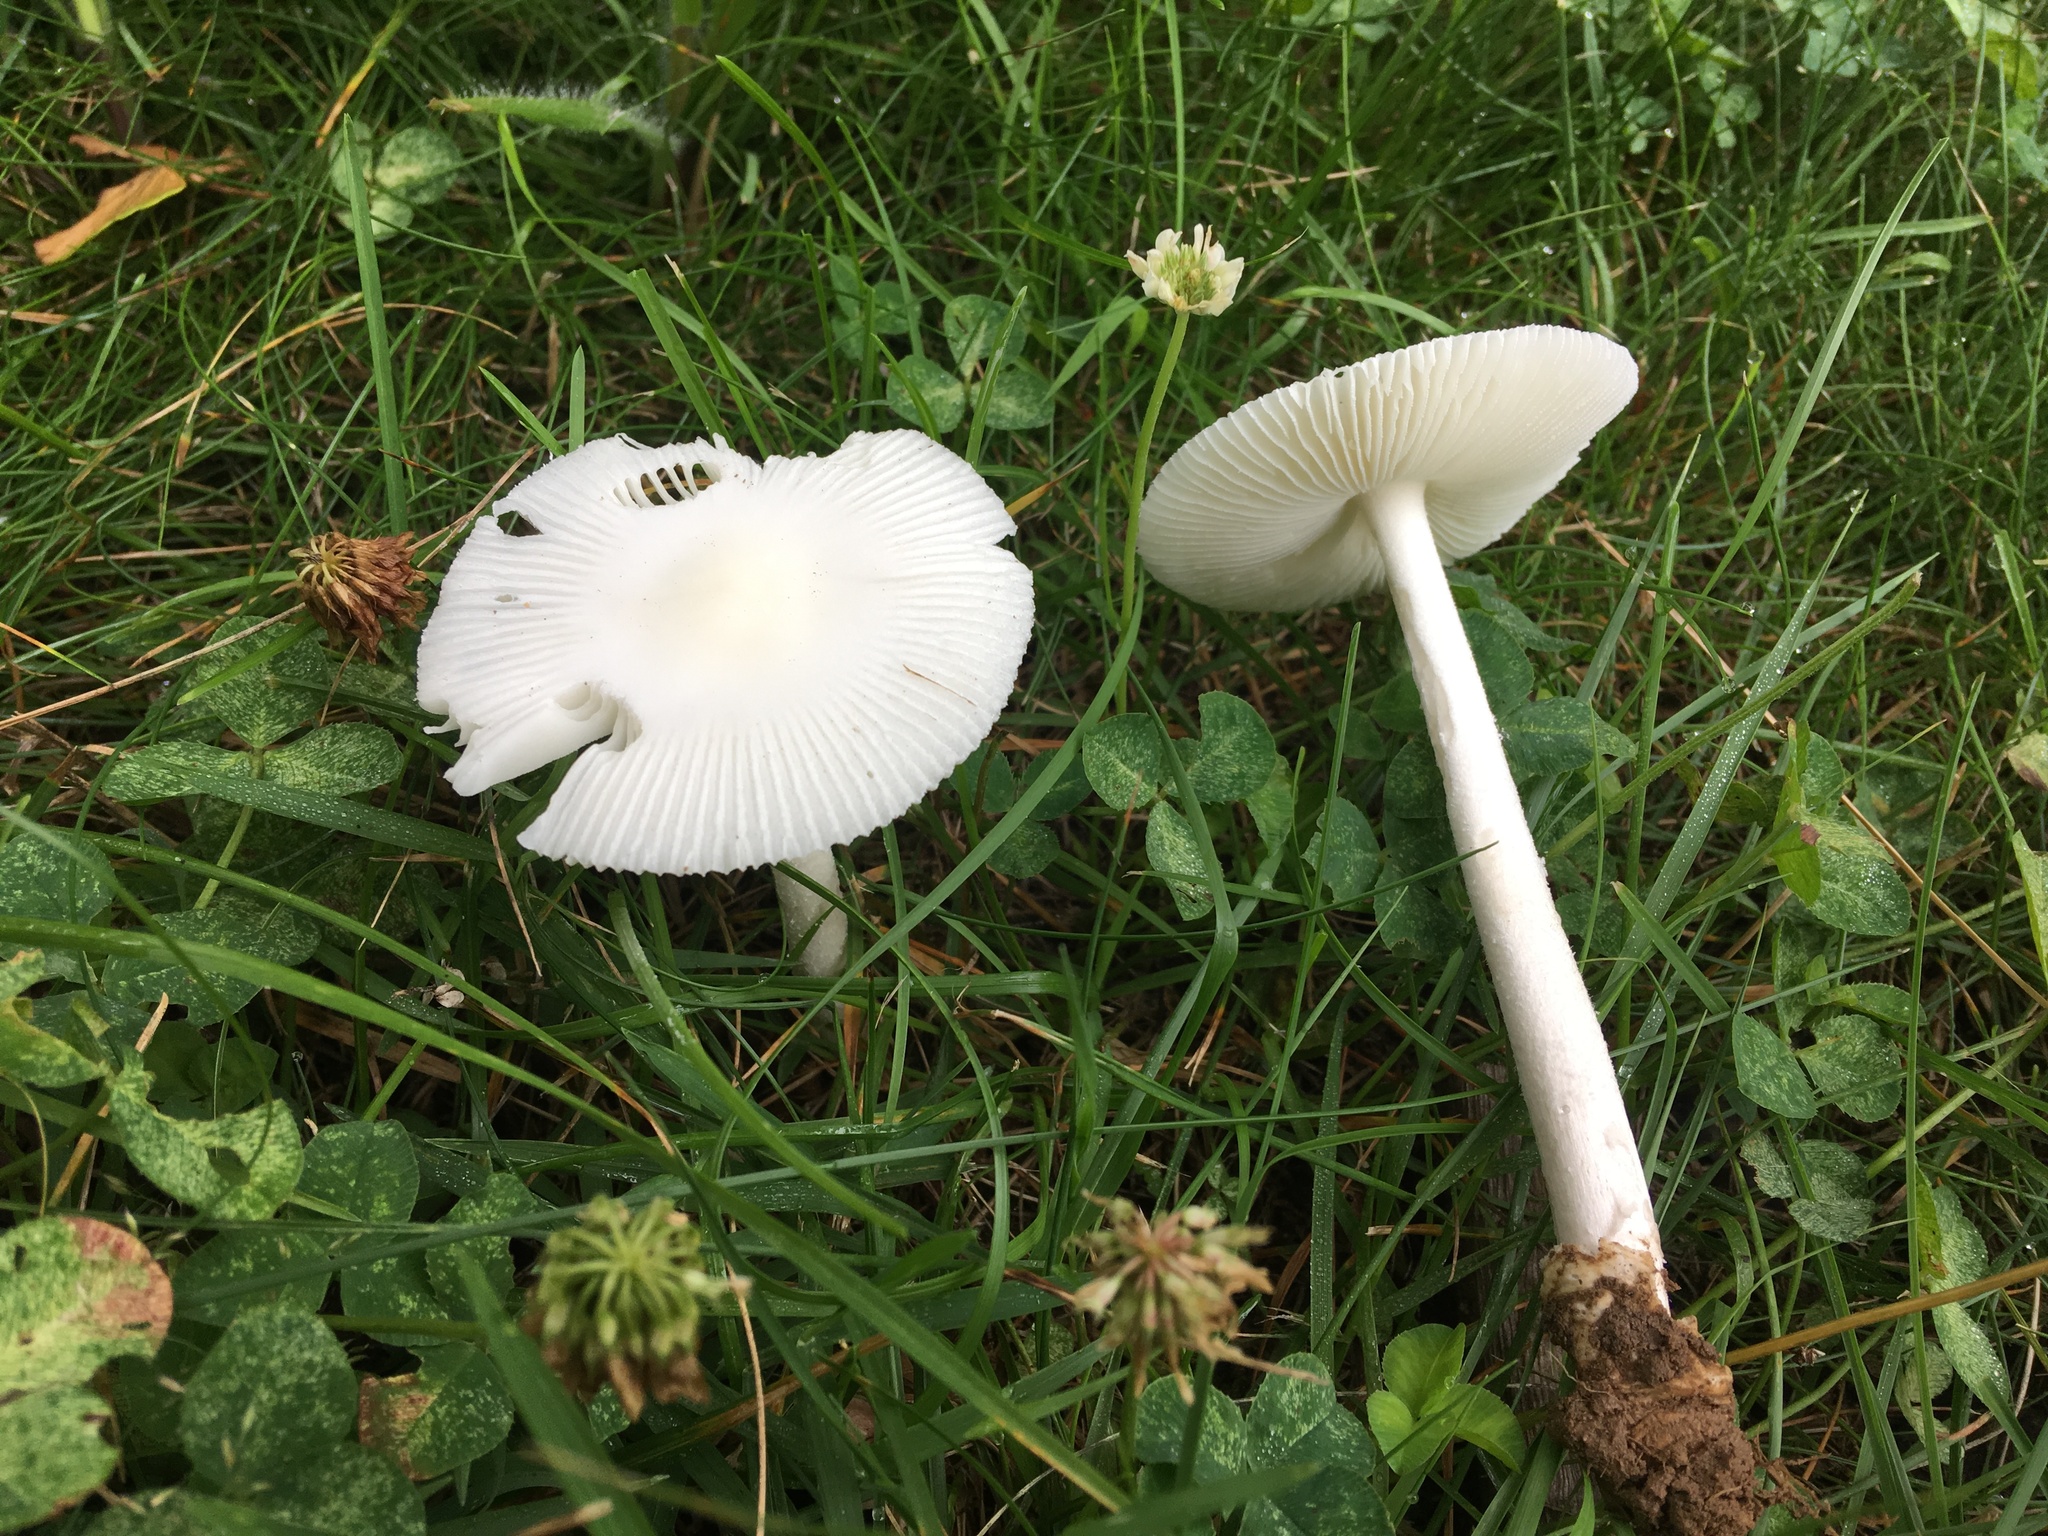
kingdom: Fungi
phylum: Basidiomycota
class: Agaricomycetes
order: Agaricales
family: Amanitaceae
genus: Amanita
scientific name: Amanita vaginata
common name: Grisette
